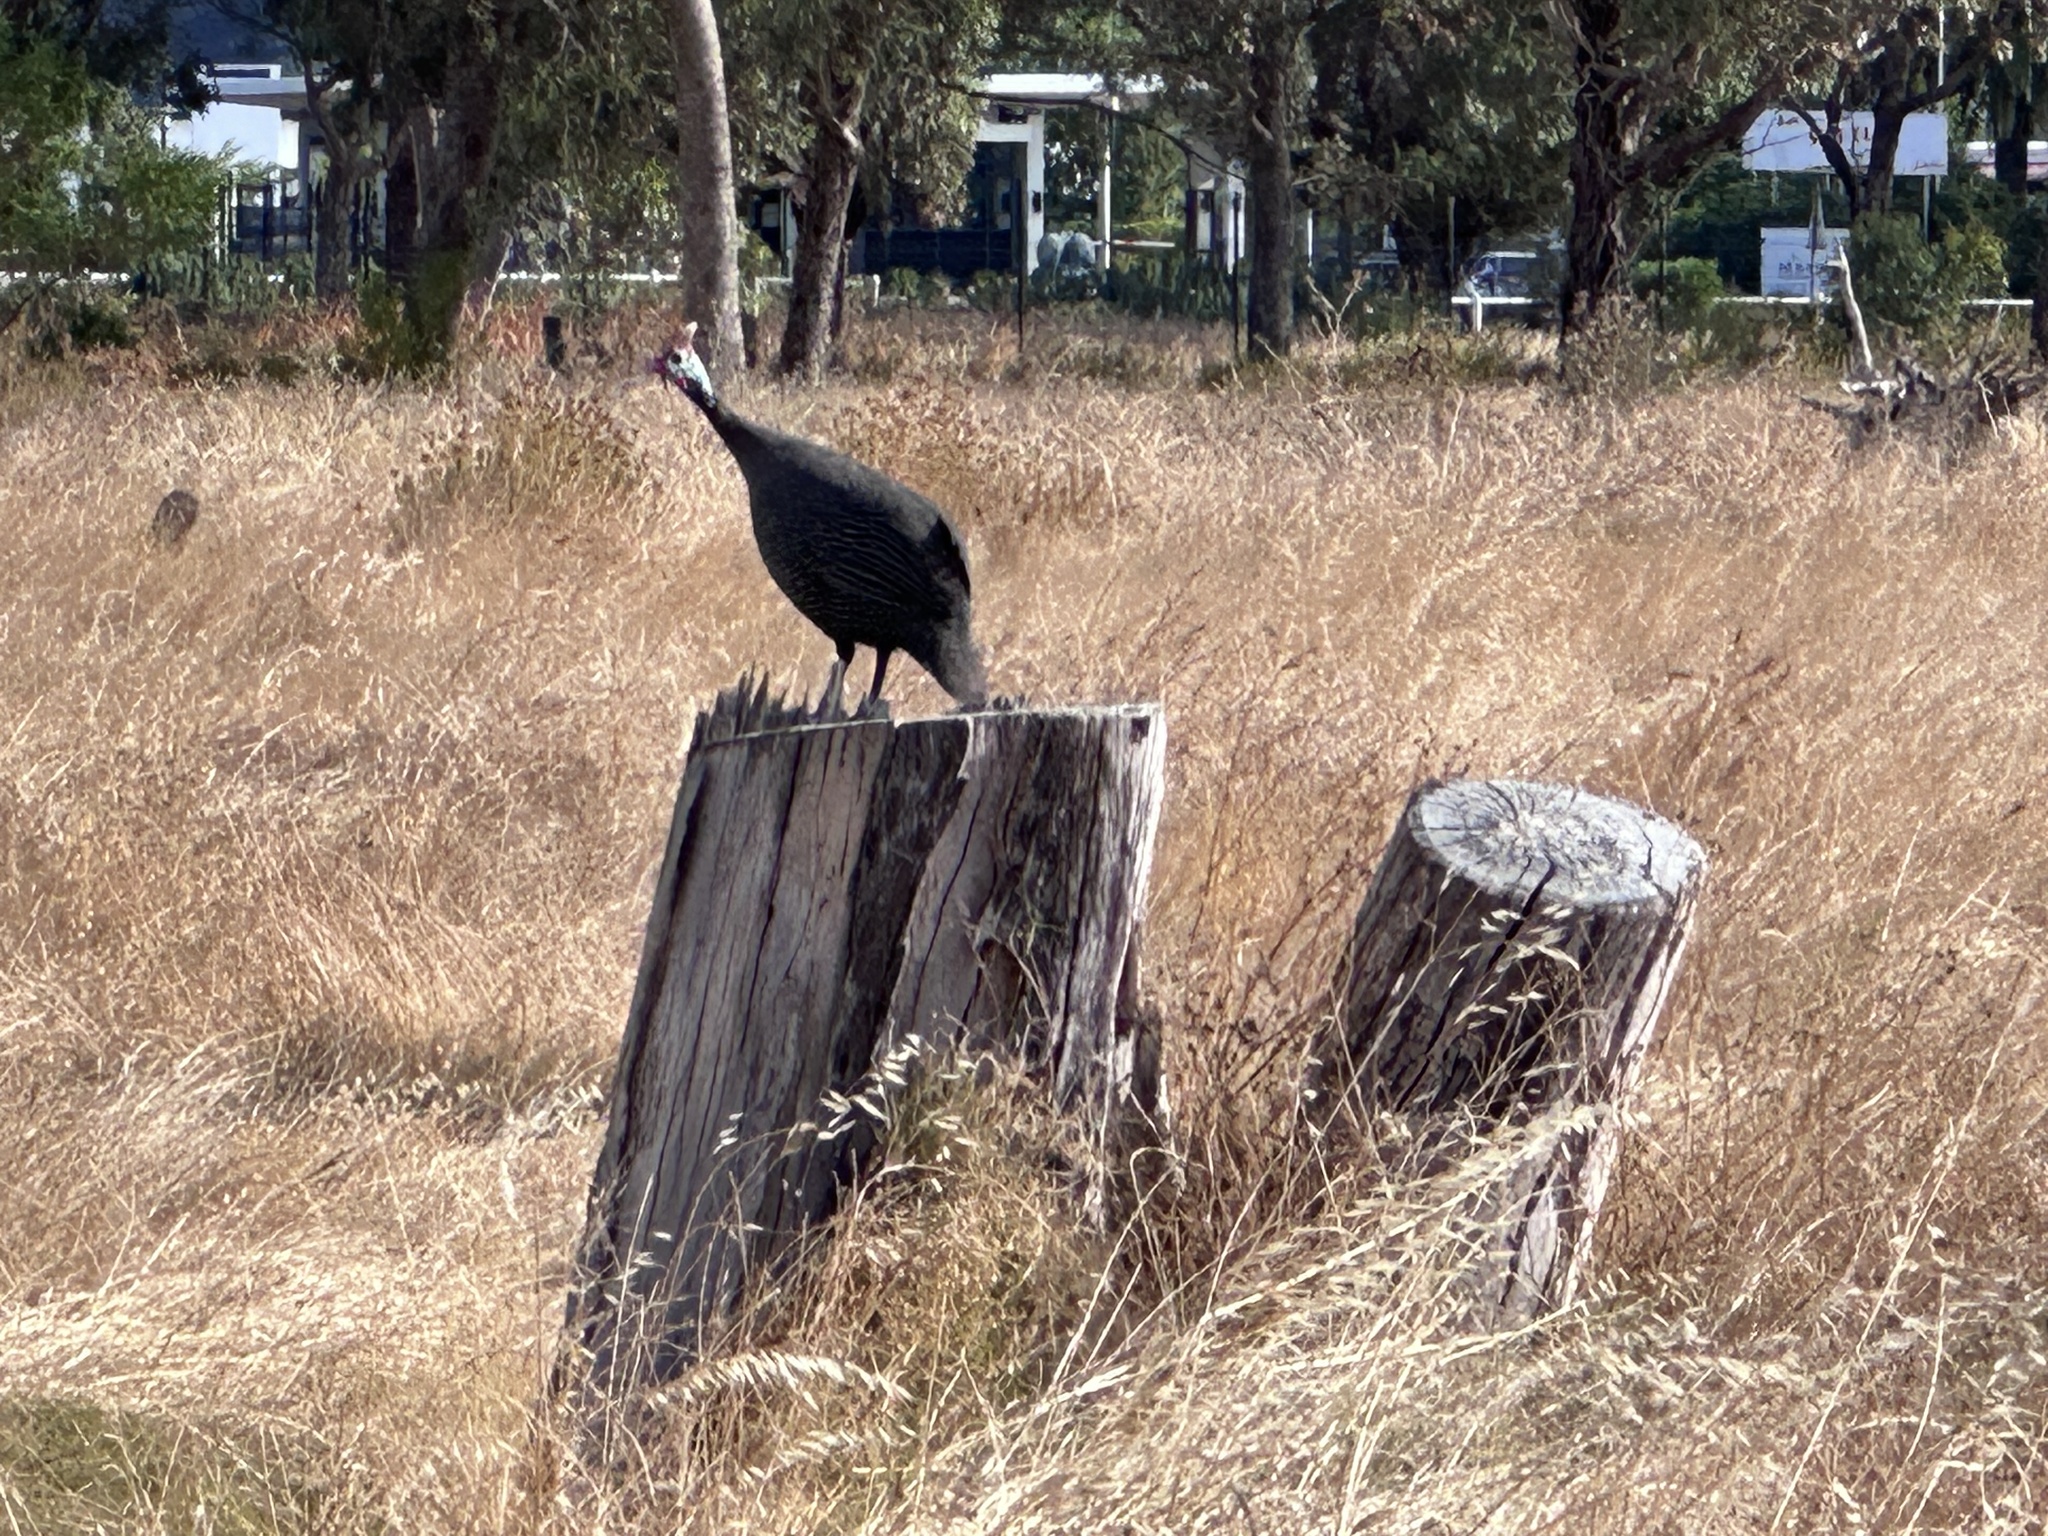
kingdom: Animalia
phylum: Chordata
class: Aves
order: Galliformes
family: Numididae
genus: Numida
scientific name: Numida meleagris
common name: Helmeted guineafowl
